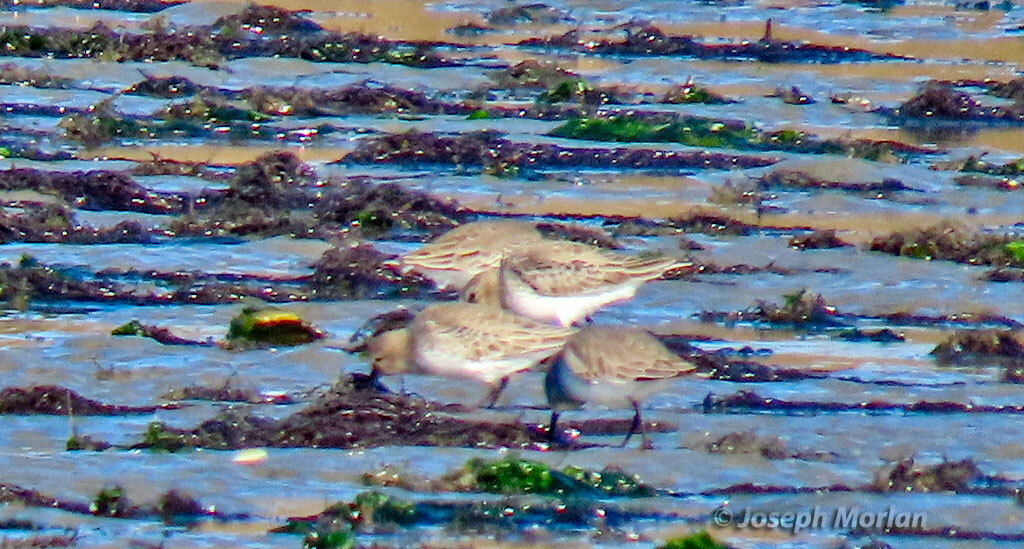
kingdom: Animalia
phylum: Chordata
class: Aves
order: Charadriiformes
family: Scolopacidae
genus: Calidris
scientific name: Calidris alpina
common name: Dunlin
